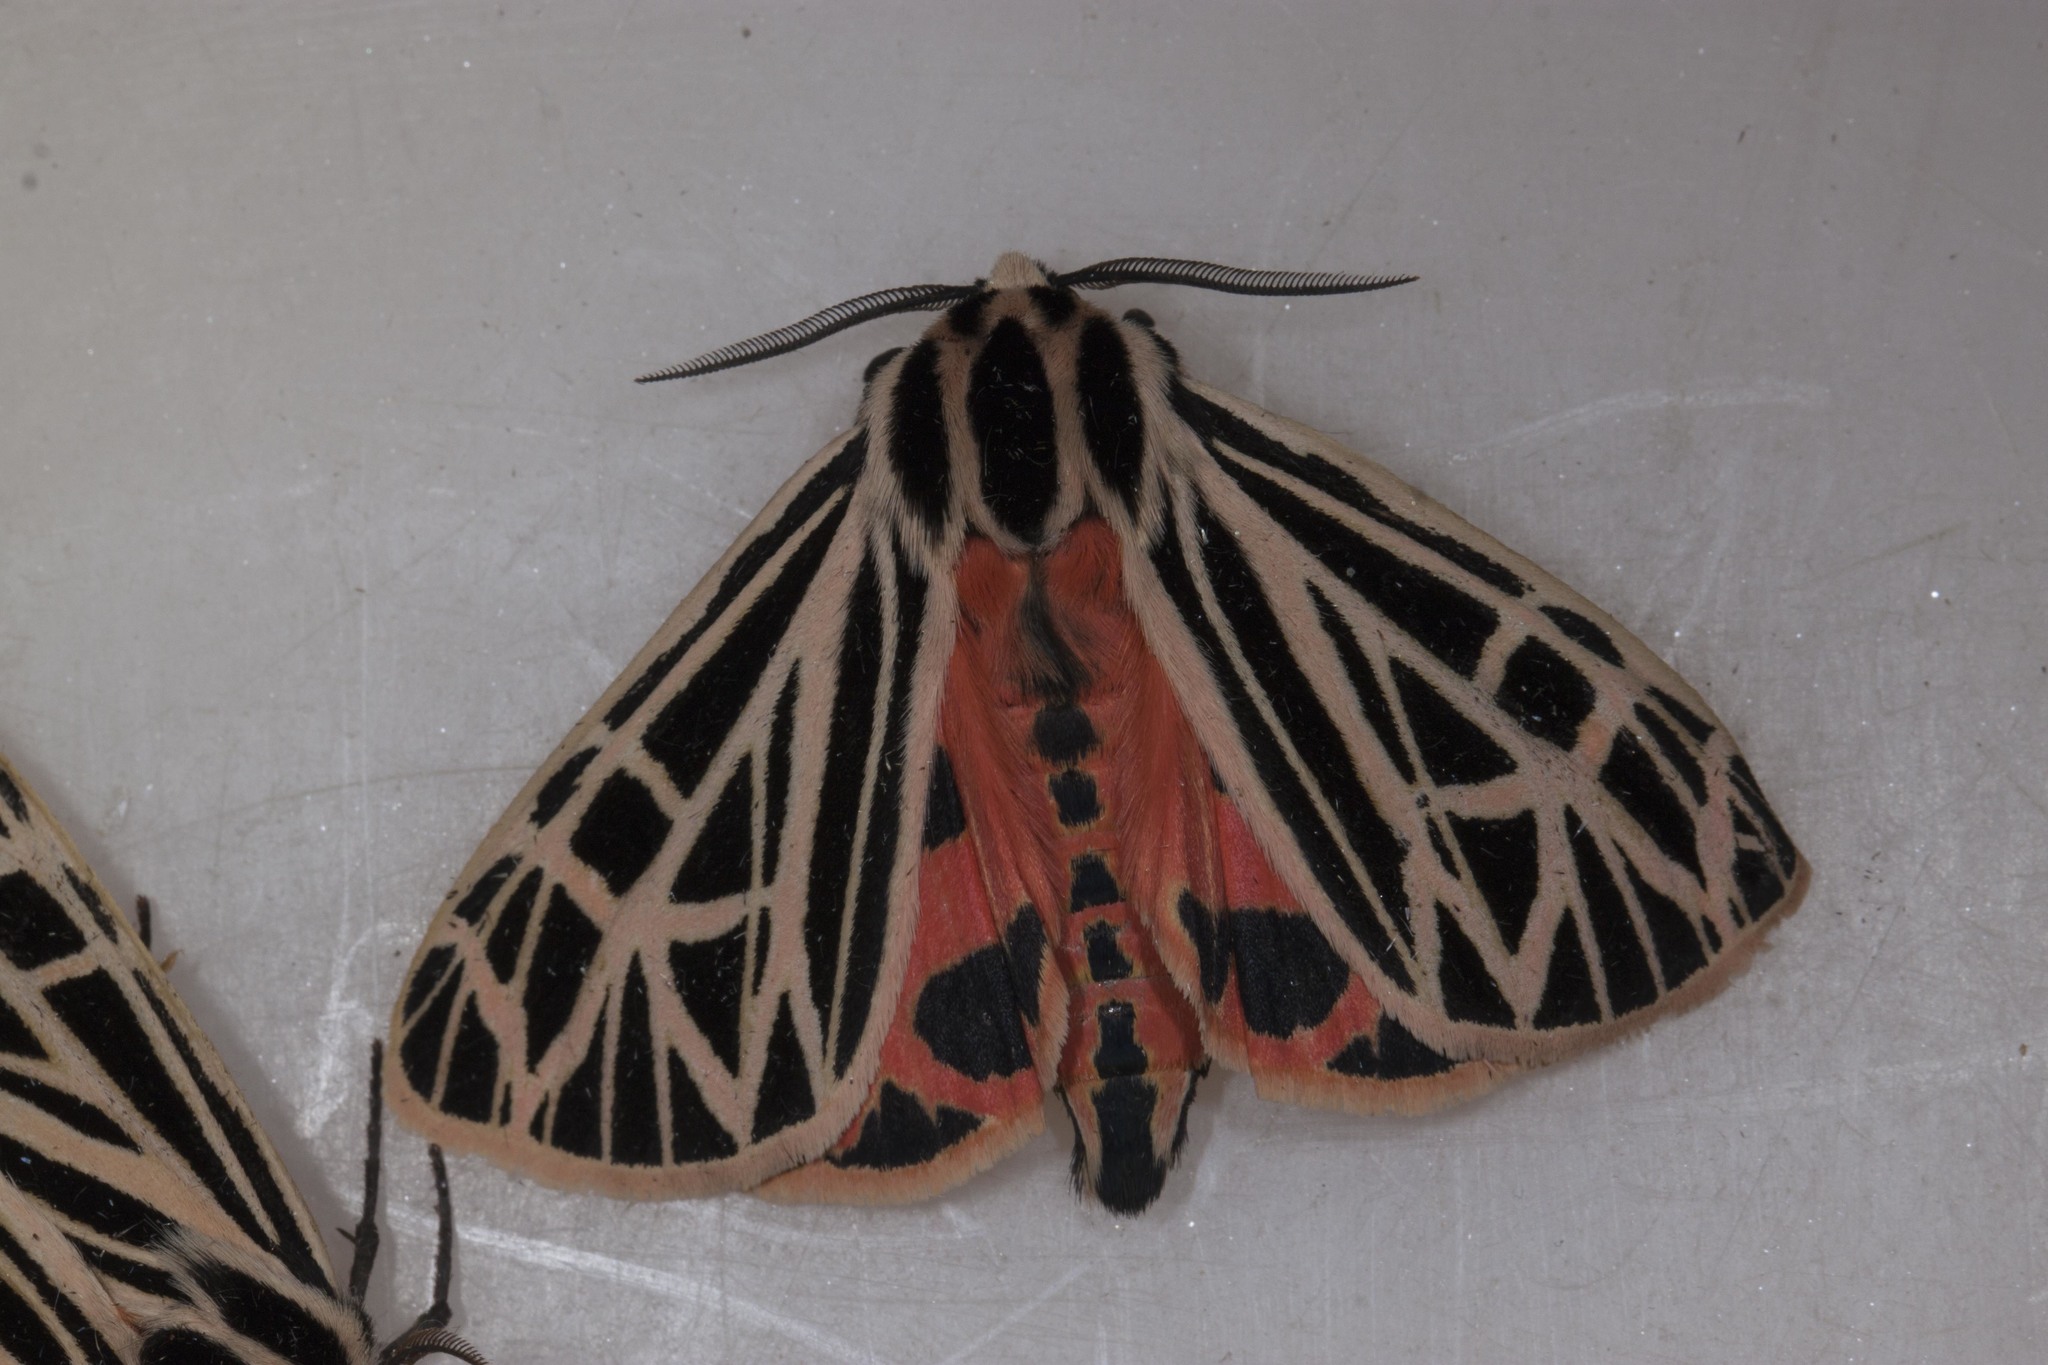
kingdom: Animalia
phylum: Arthropoda
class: Insecta
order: Lepidoptera
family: Erebidae
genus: Grammia
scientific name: Grammia virgo
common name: Virgin tiger moth
